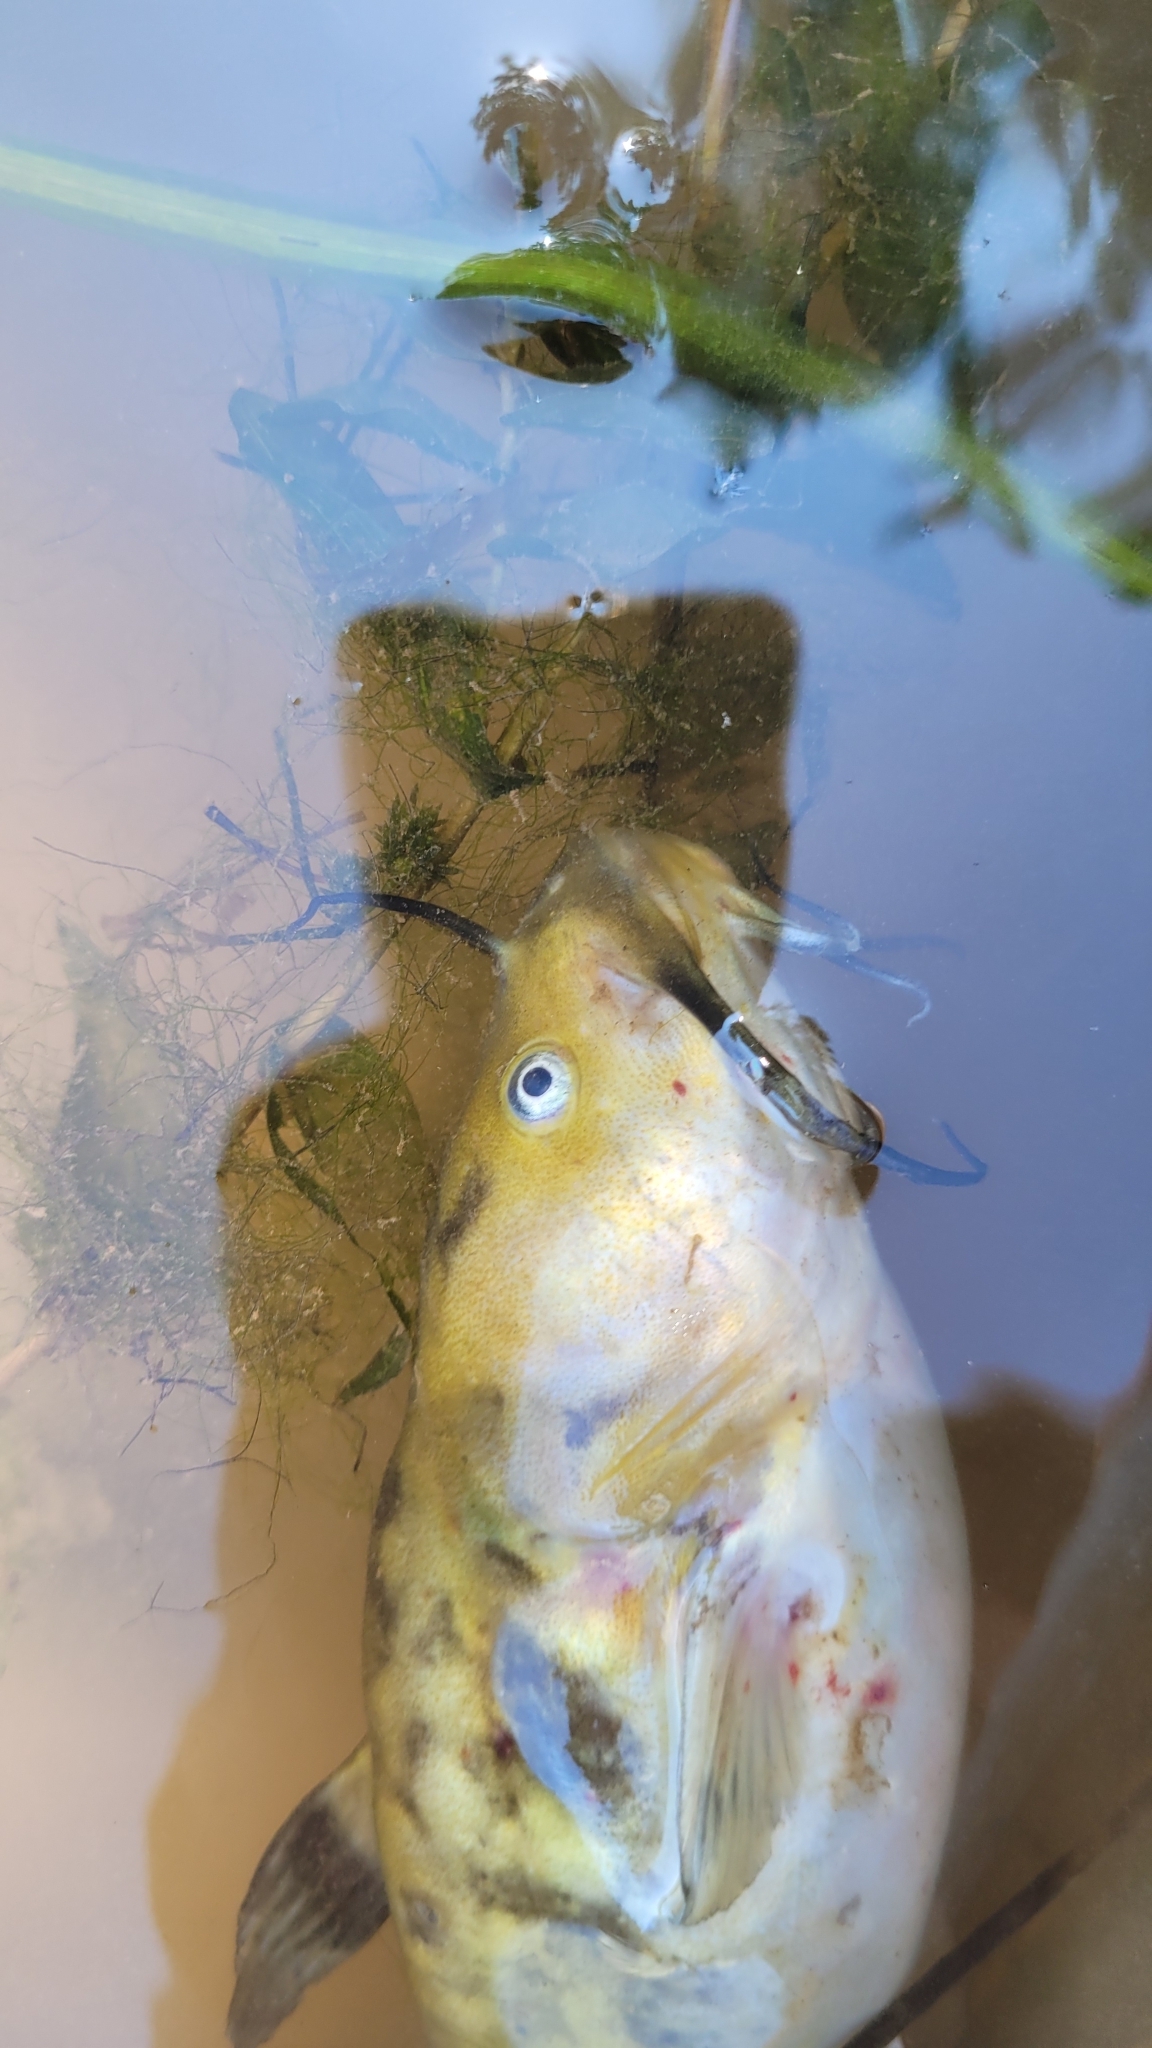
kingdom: Animalia
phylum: Chordata
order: Siluriformes
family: Ictaluridae
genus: Ameiurus
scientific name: Ameiurus nebulosus
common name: Brown bullhead
